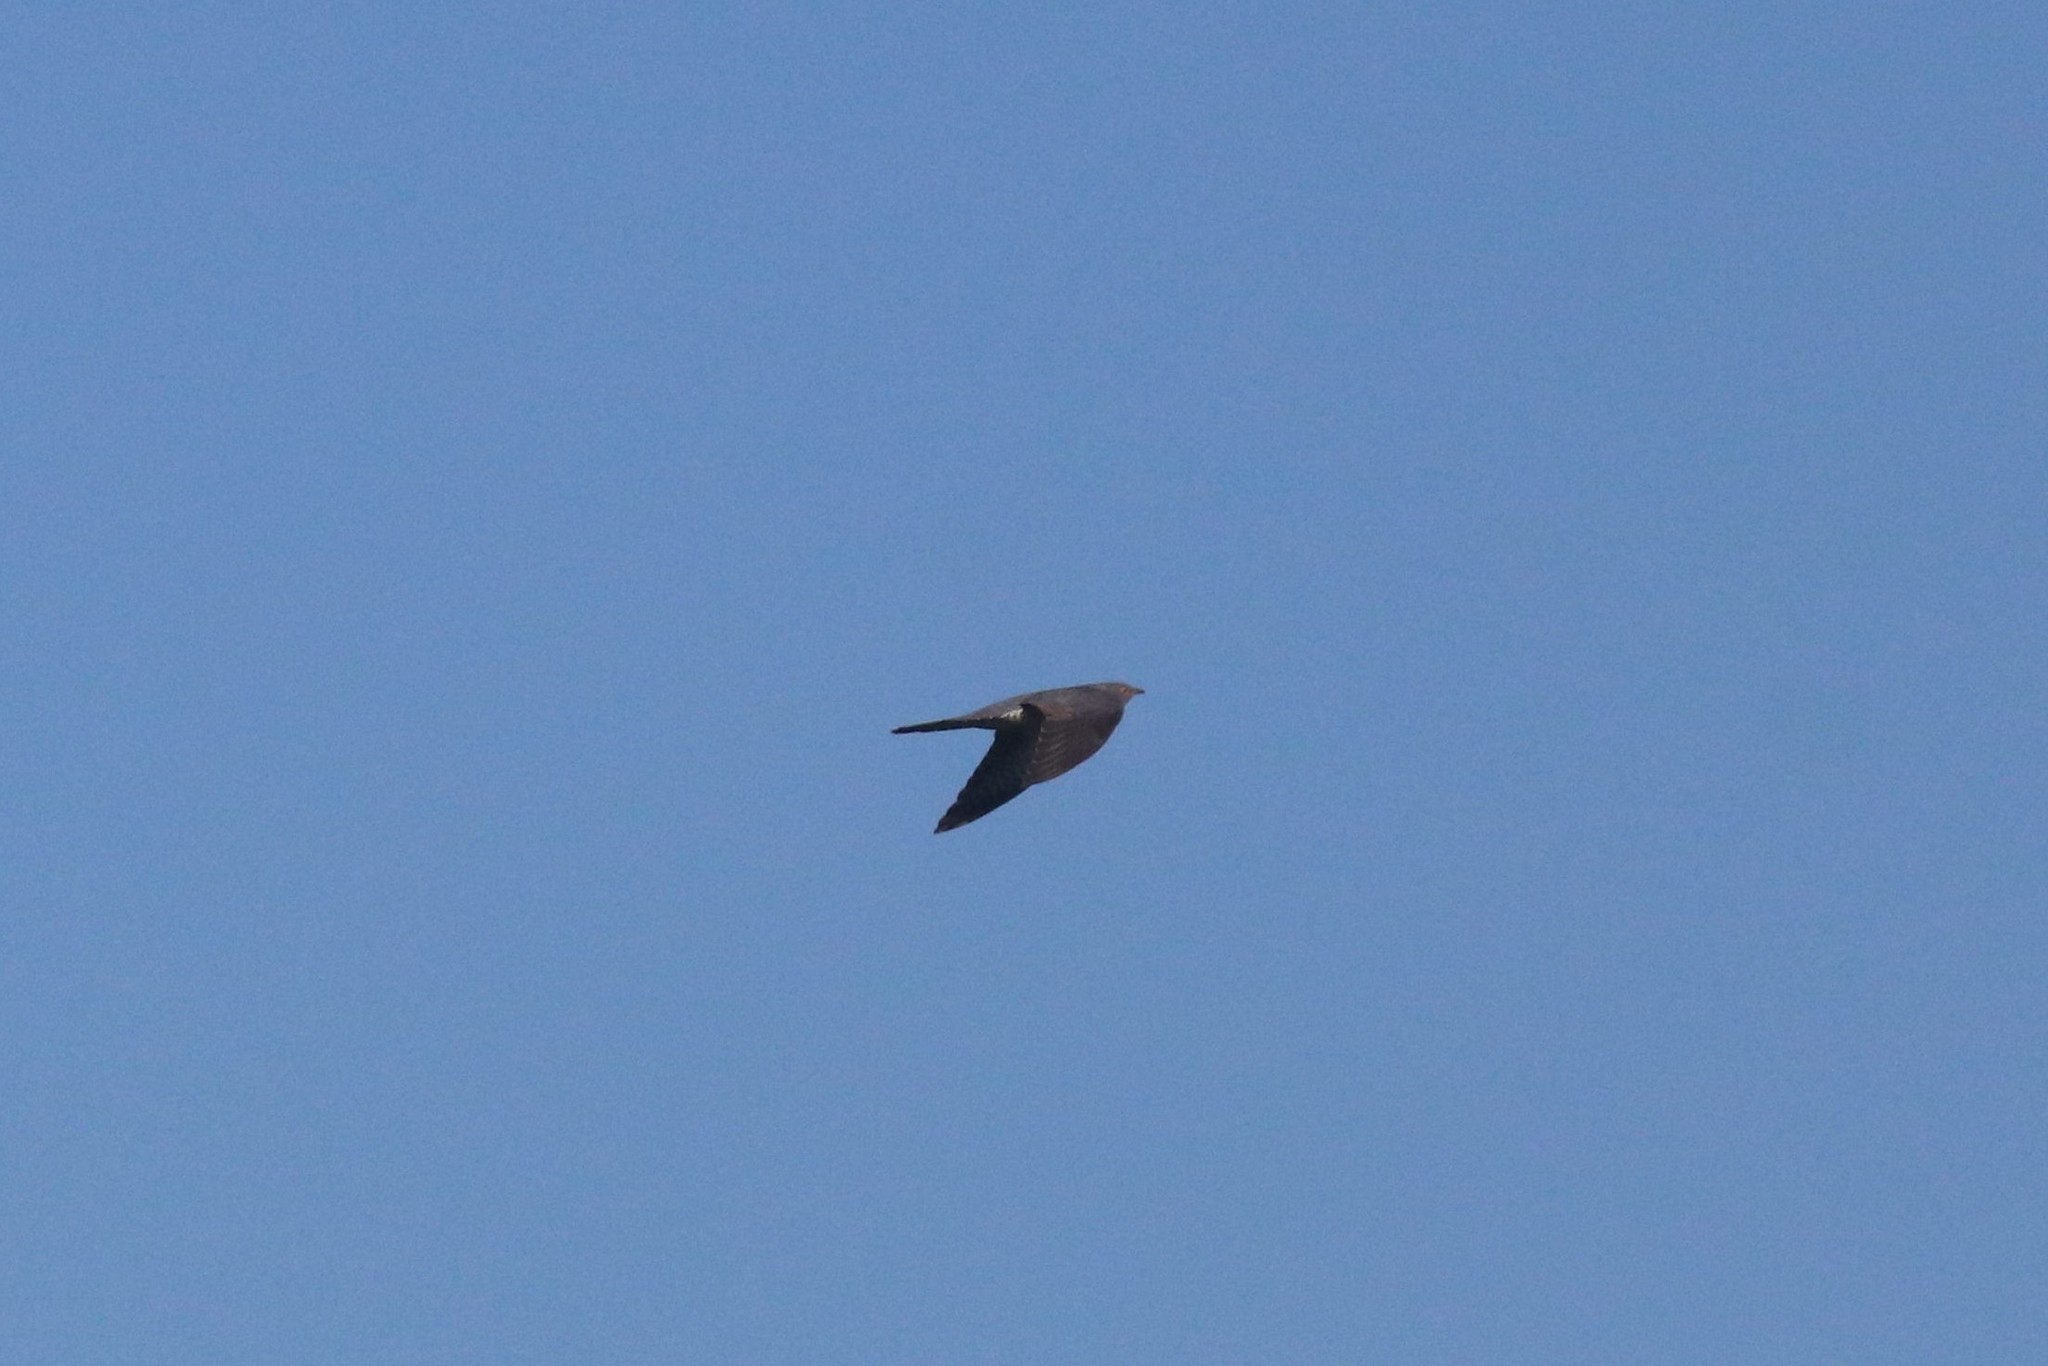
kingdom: Animalia
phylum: Chordata
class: Aves
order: Cuculiformes
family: Cuculidae
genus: Cuculus
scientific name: Cuculus canorus
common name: Common cuckoo
